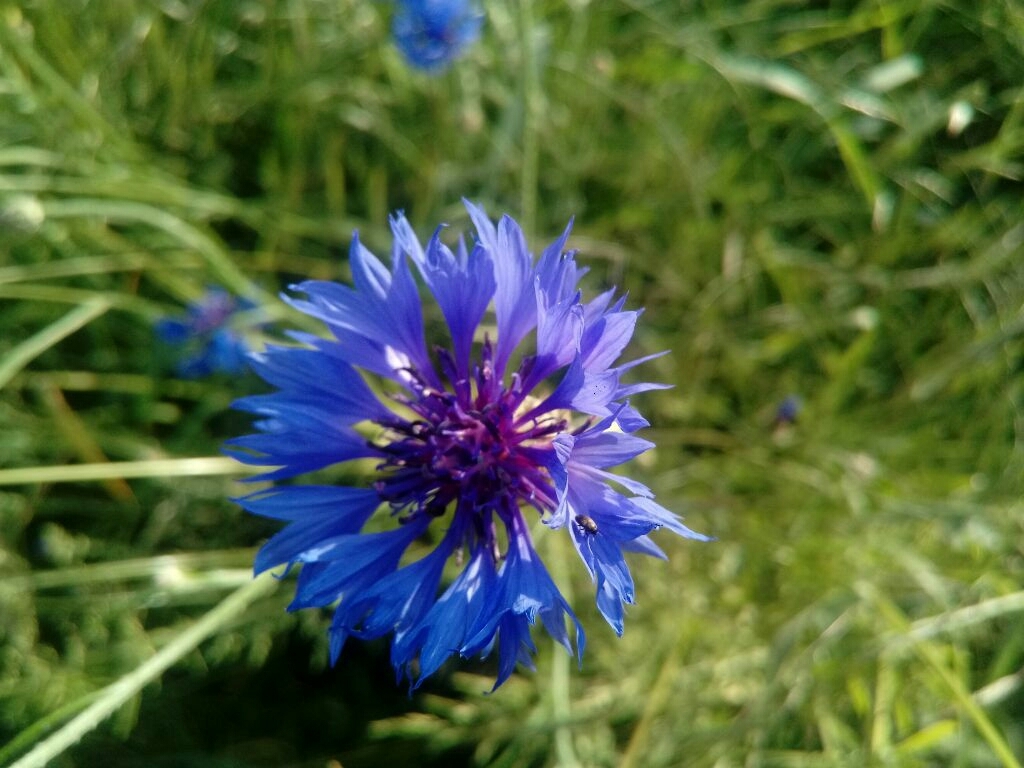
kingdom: Plantae
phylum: Tracheophyta
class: Magnoliopsida
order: Asterales
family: Asteraceae
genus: Centaurea
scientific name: Centaurea cyanus
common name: Cornflower
